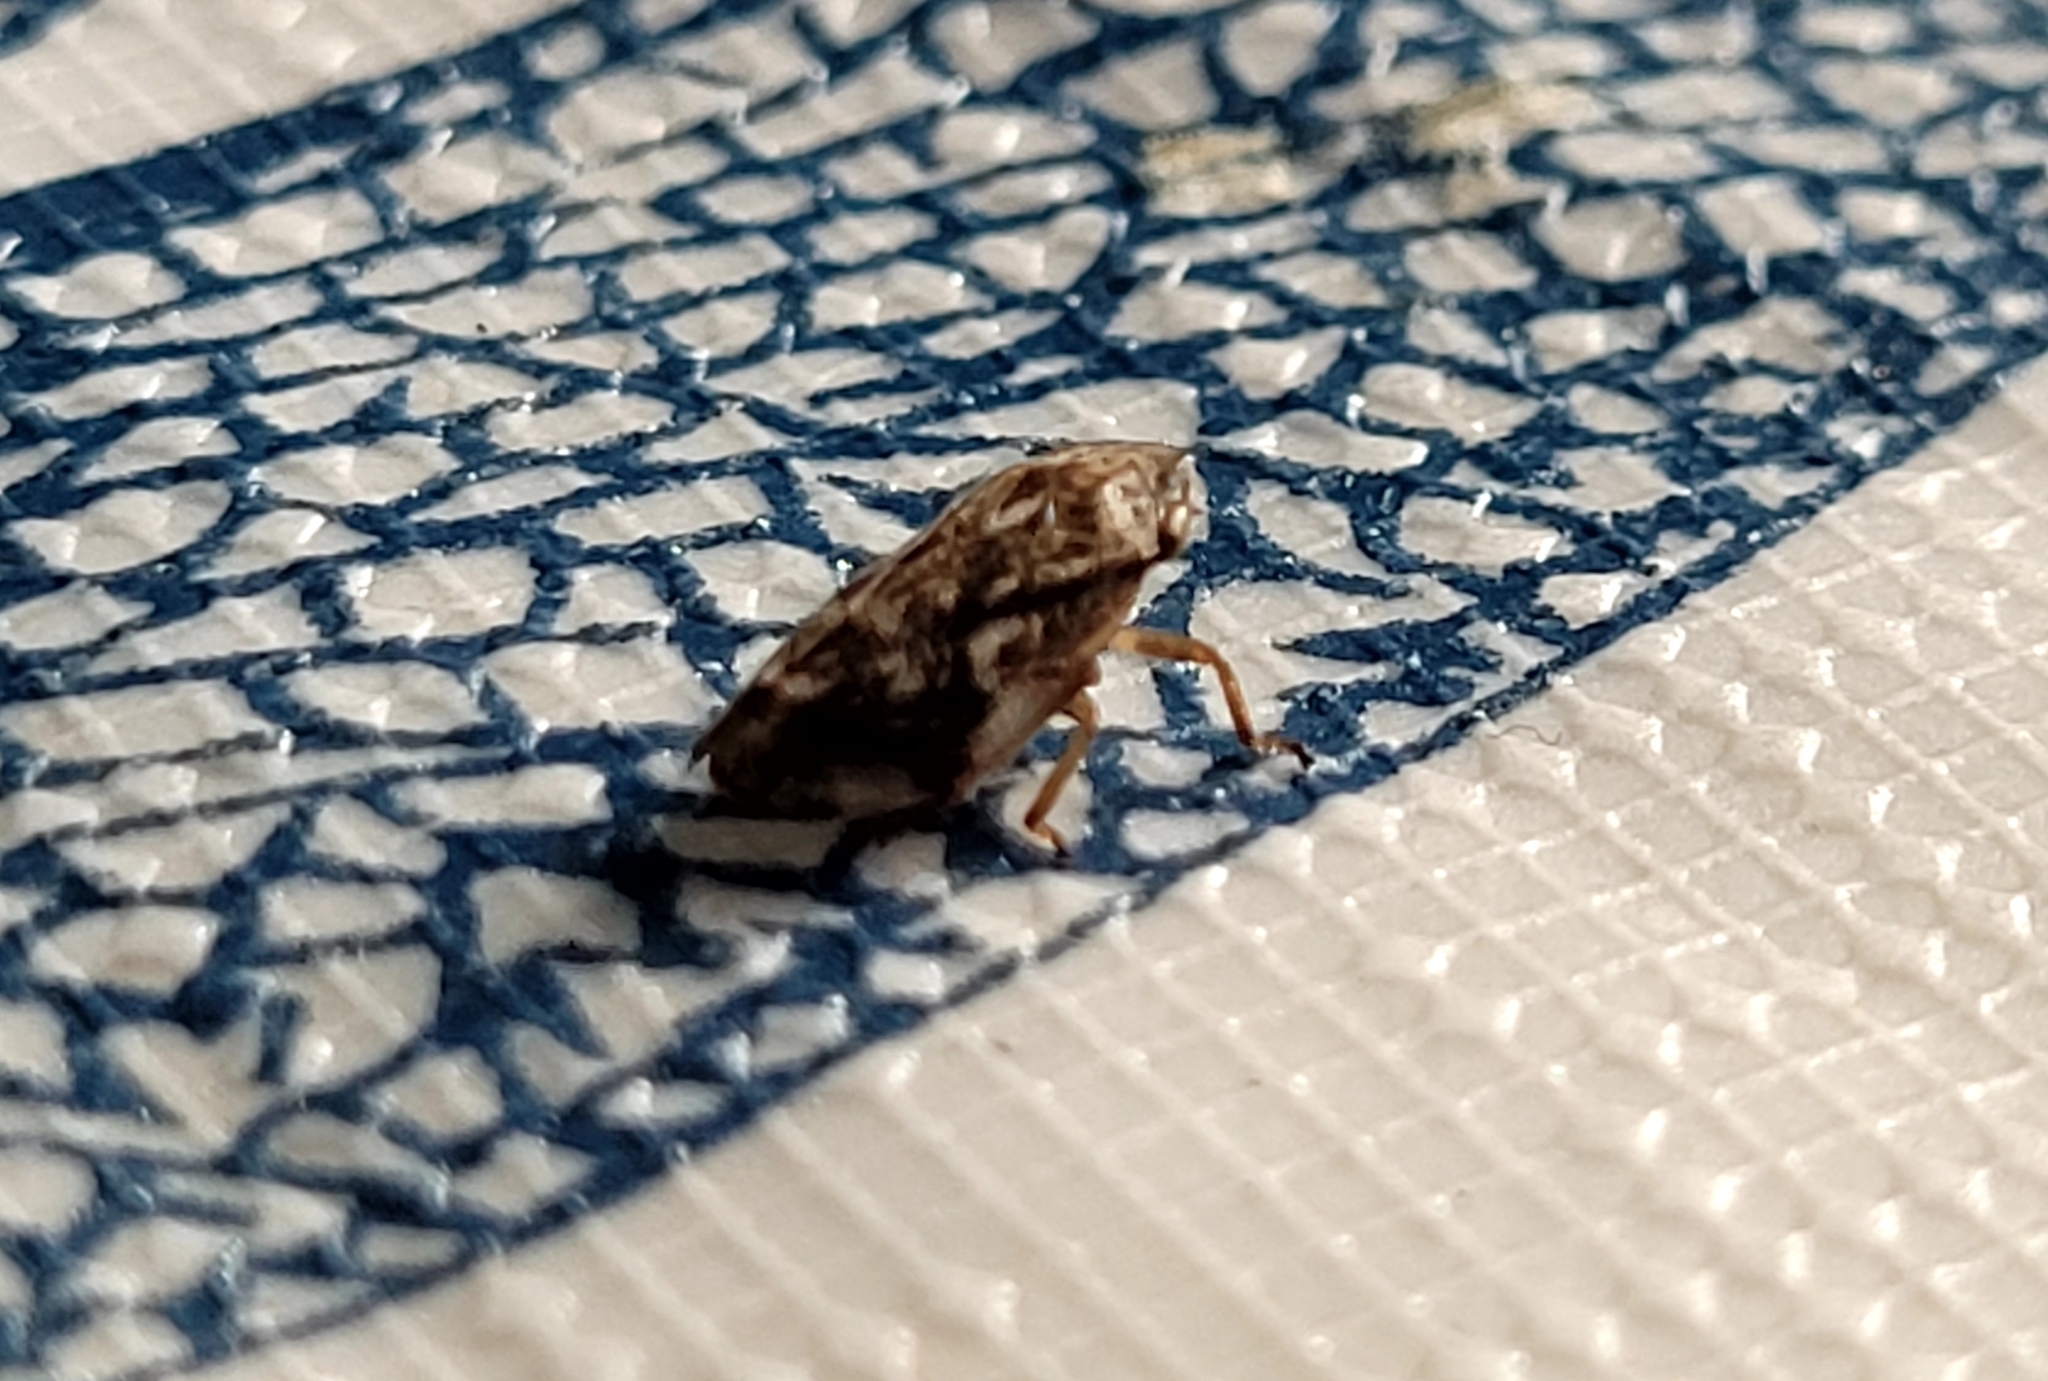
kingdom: Animalia
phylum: Arthropoda
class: Insecta
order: Hemiptera
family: Aphrophoridae
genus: Philaenus
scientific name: Philaenus spumarius
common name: Meadow spittlebug
